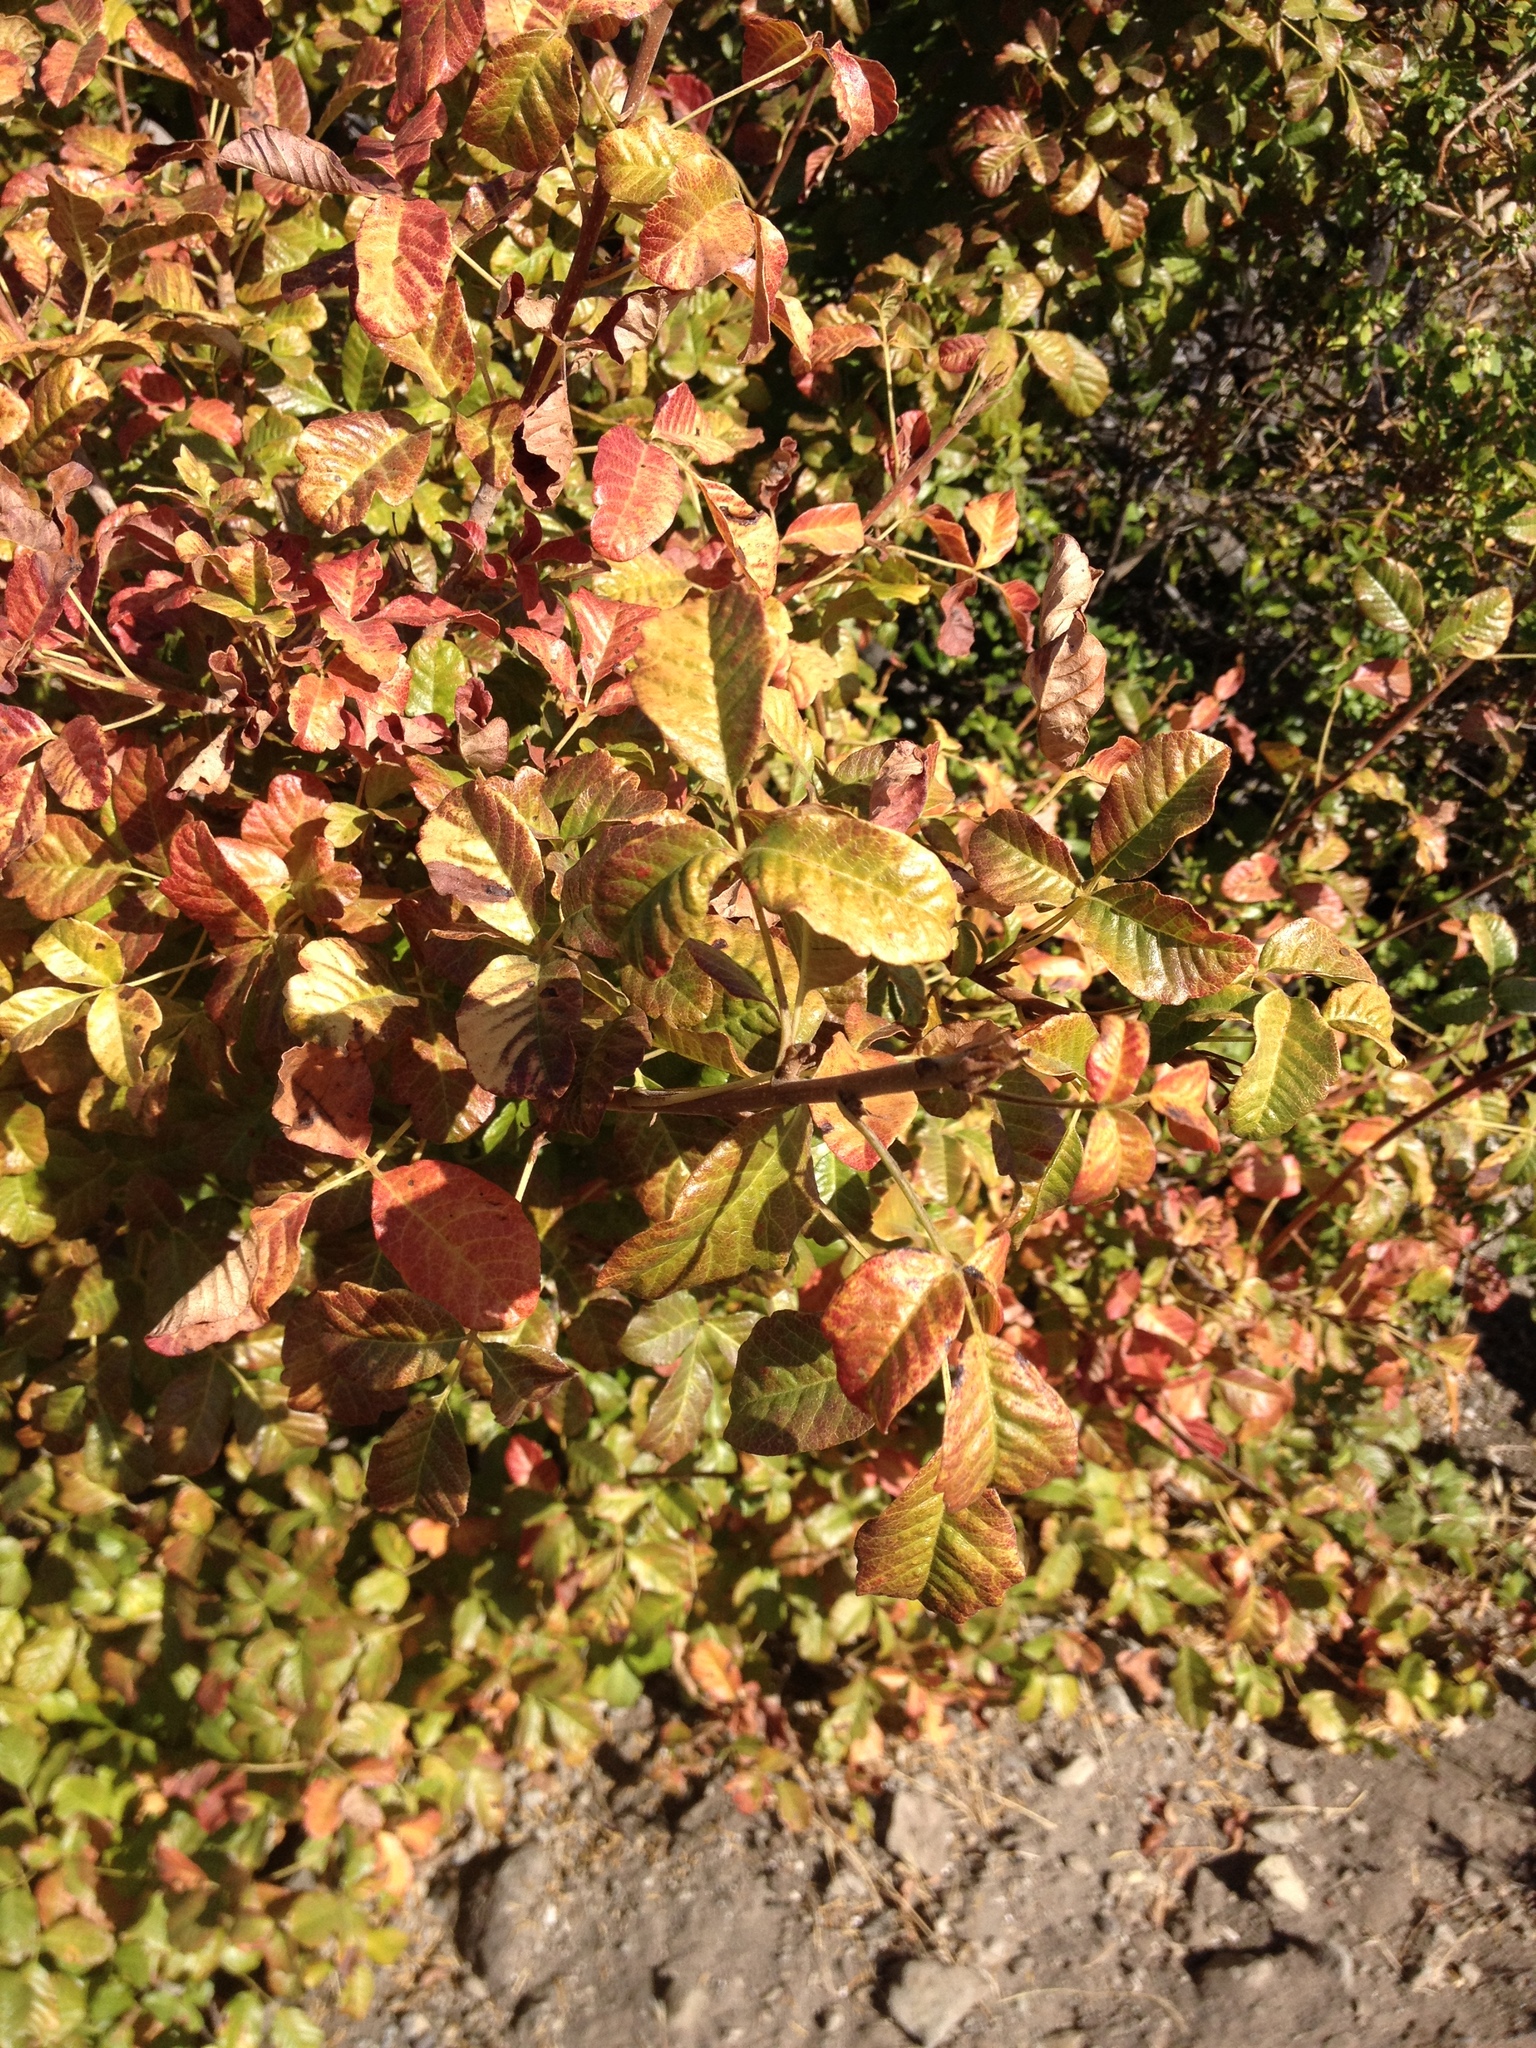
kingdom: Plantae
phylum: Tracheophyta
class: Magnoliopsida
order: Sapindales
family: Anacardiaceae
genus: Toxicodendron
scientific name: Toxicodendron diversilobum
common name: Pacific poison-oak
